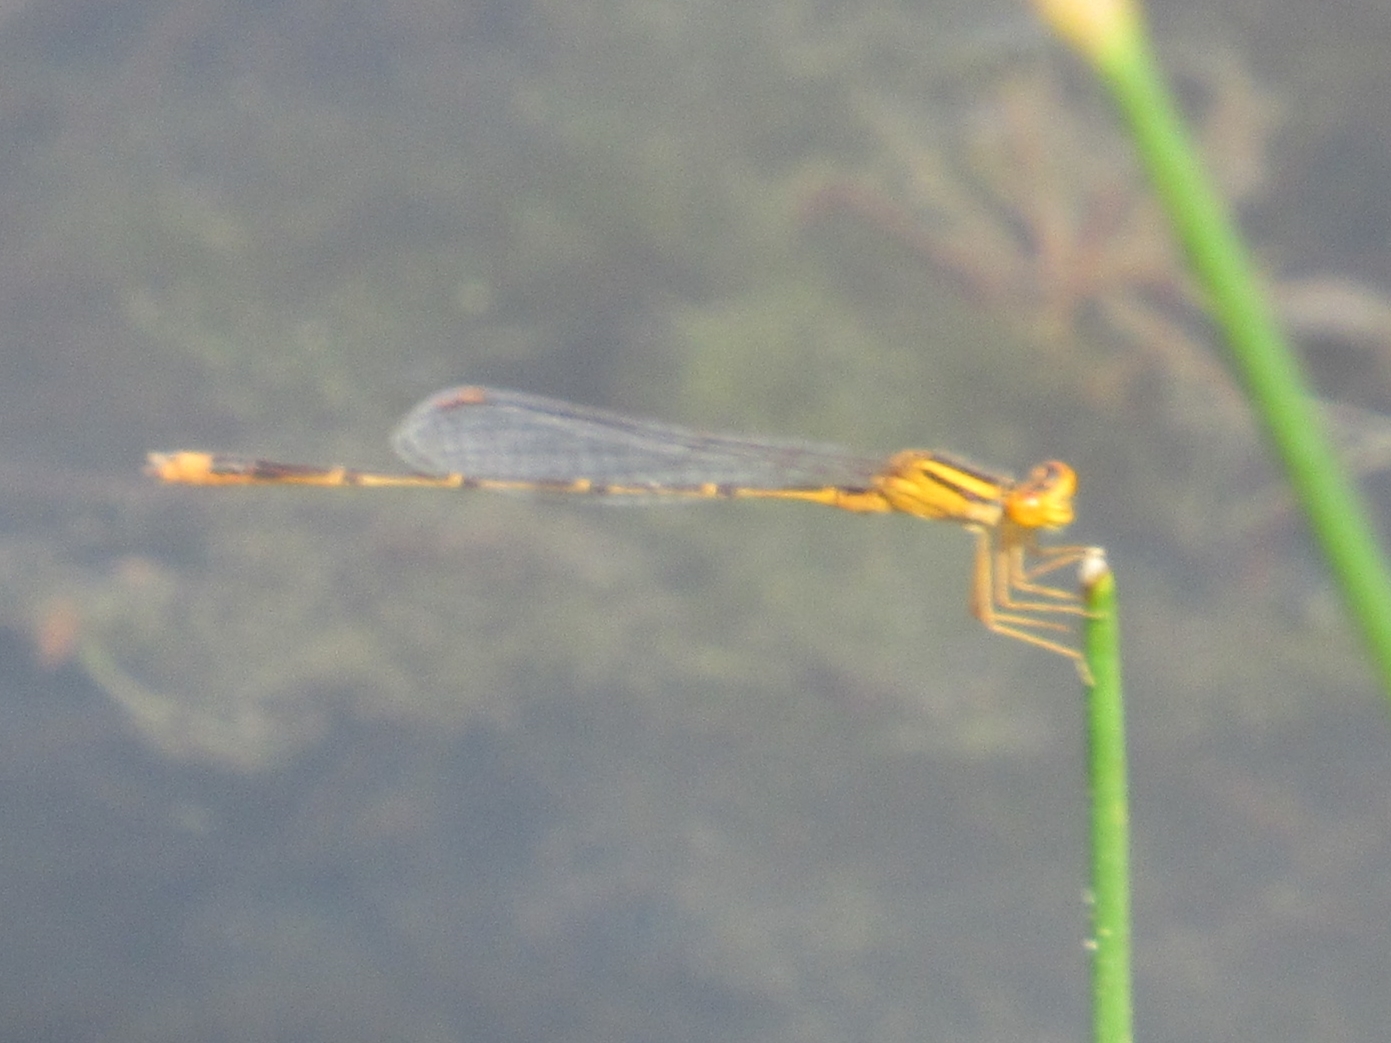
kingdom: Animalia
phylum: Arthropoda
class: Insecta
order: Odonata
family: Coenagrionidae
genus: Enallagma
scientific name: Enallagma signatum
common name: Orange bluet
